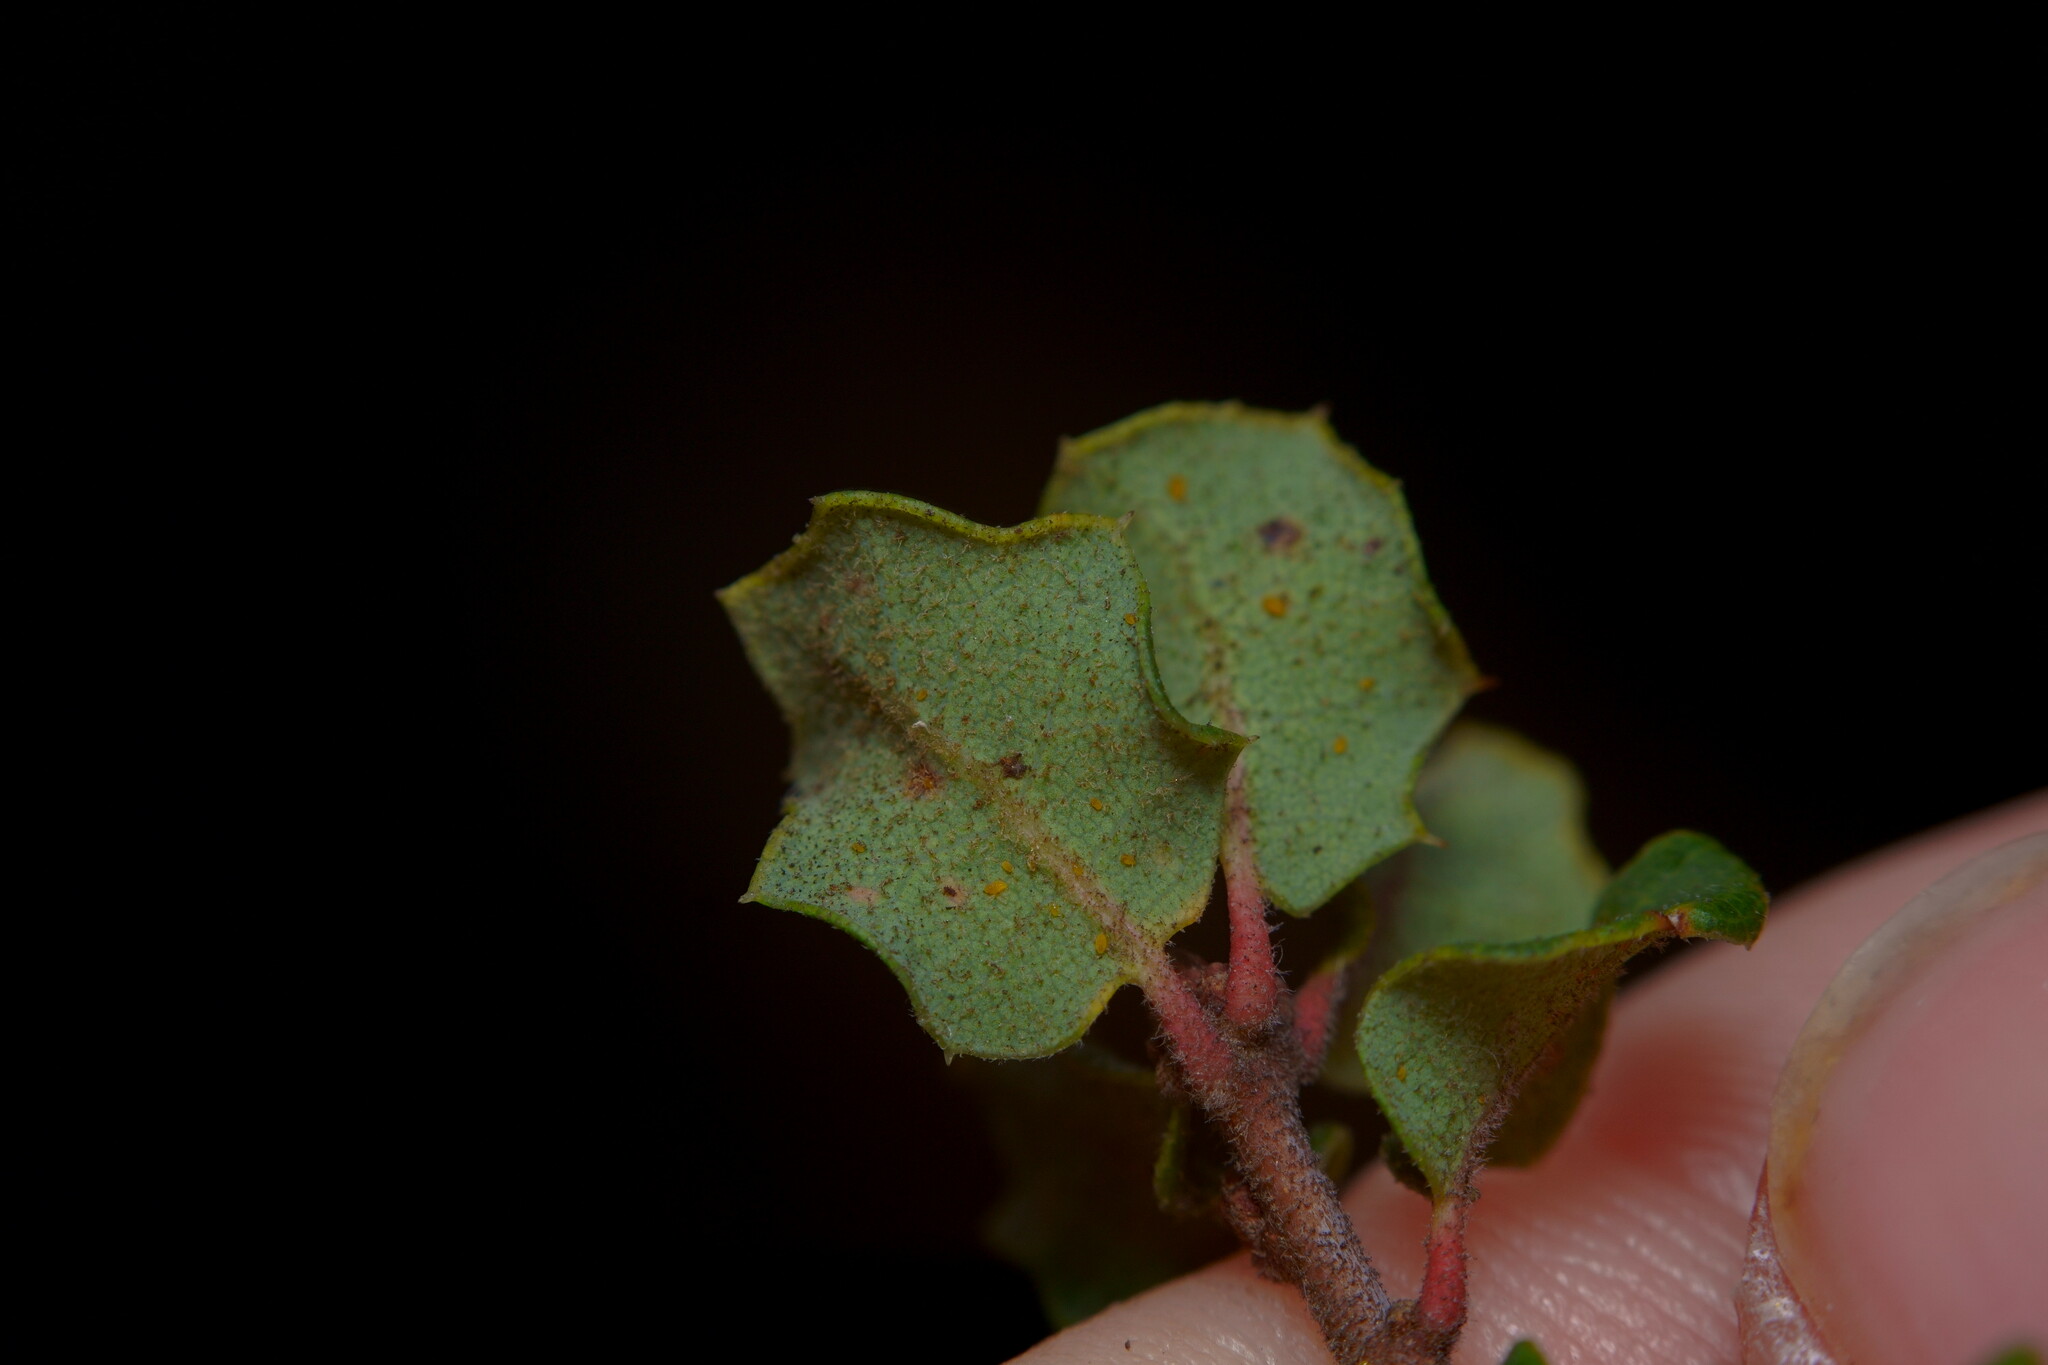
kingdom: Plantae
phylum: Tracheophyta
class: Magnoliopsida
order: Fagales
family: Fagaceae
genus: Quercus
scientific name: Quercus dumosa
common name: Coastal sage scrub oak
